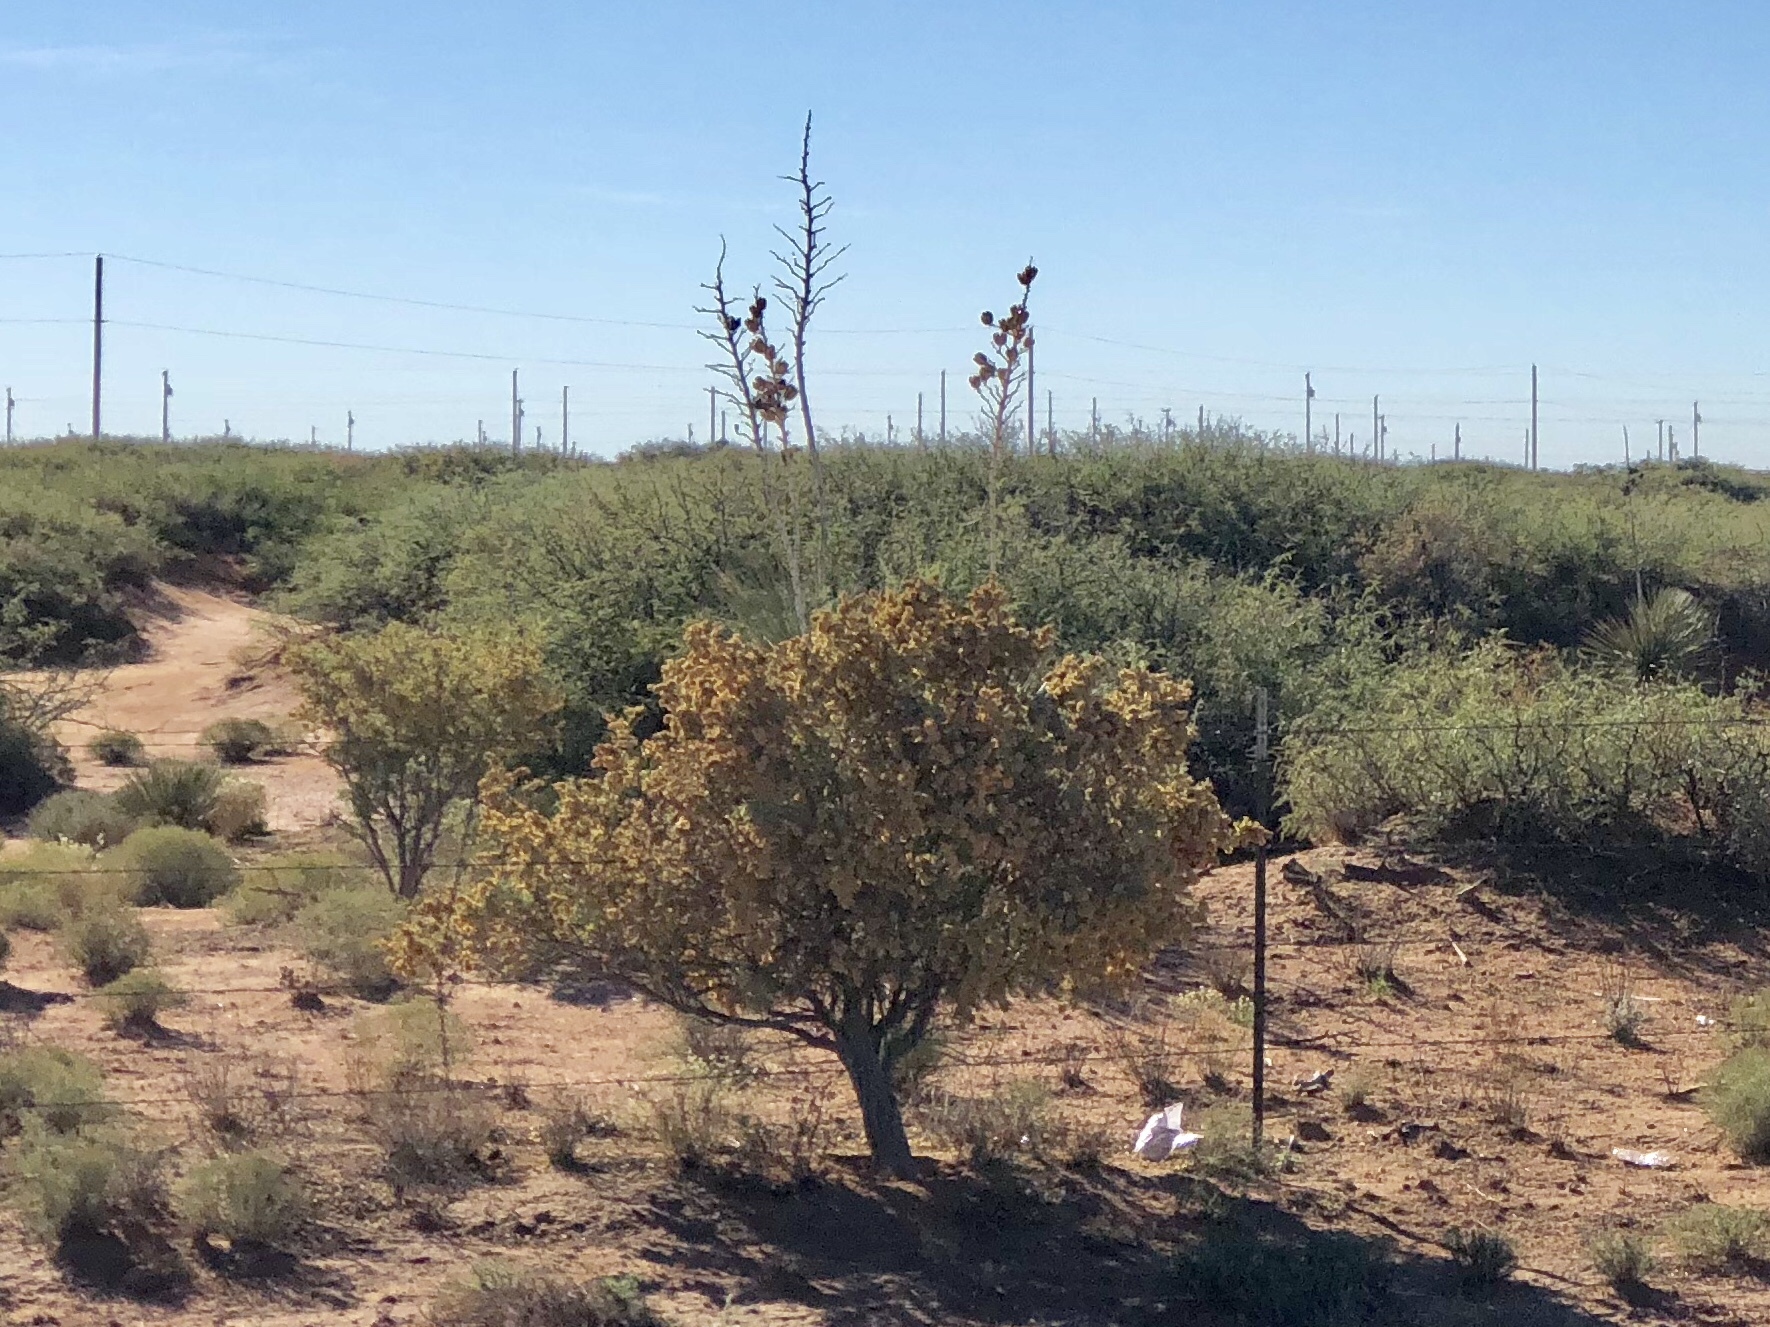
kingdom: Plantae
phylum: Tracheophyta
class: Magnoliopsida
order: Caryophyllales
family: Amaranthaceae
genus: Atriplex
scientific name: Atriplex canescens
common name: Four-wing saltbush
